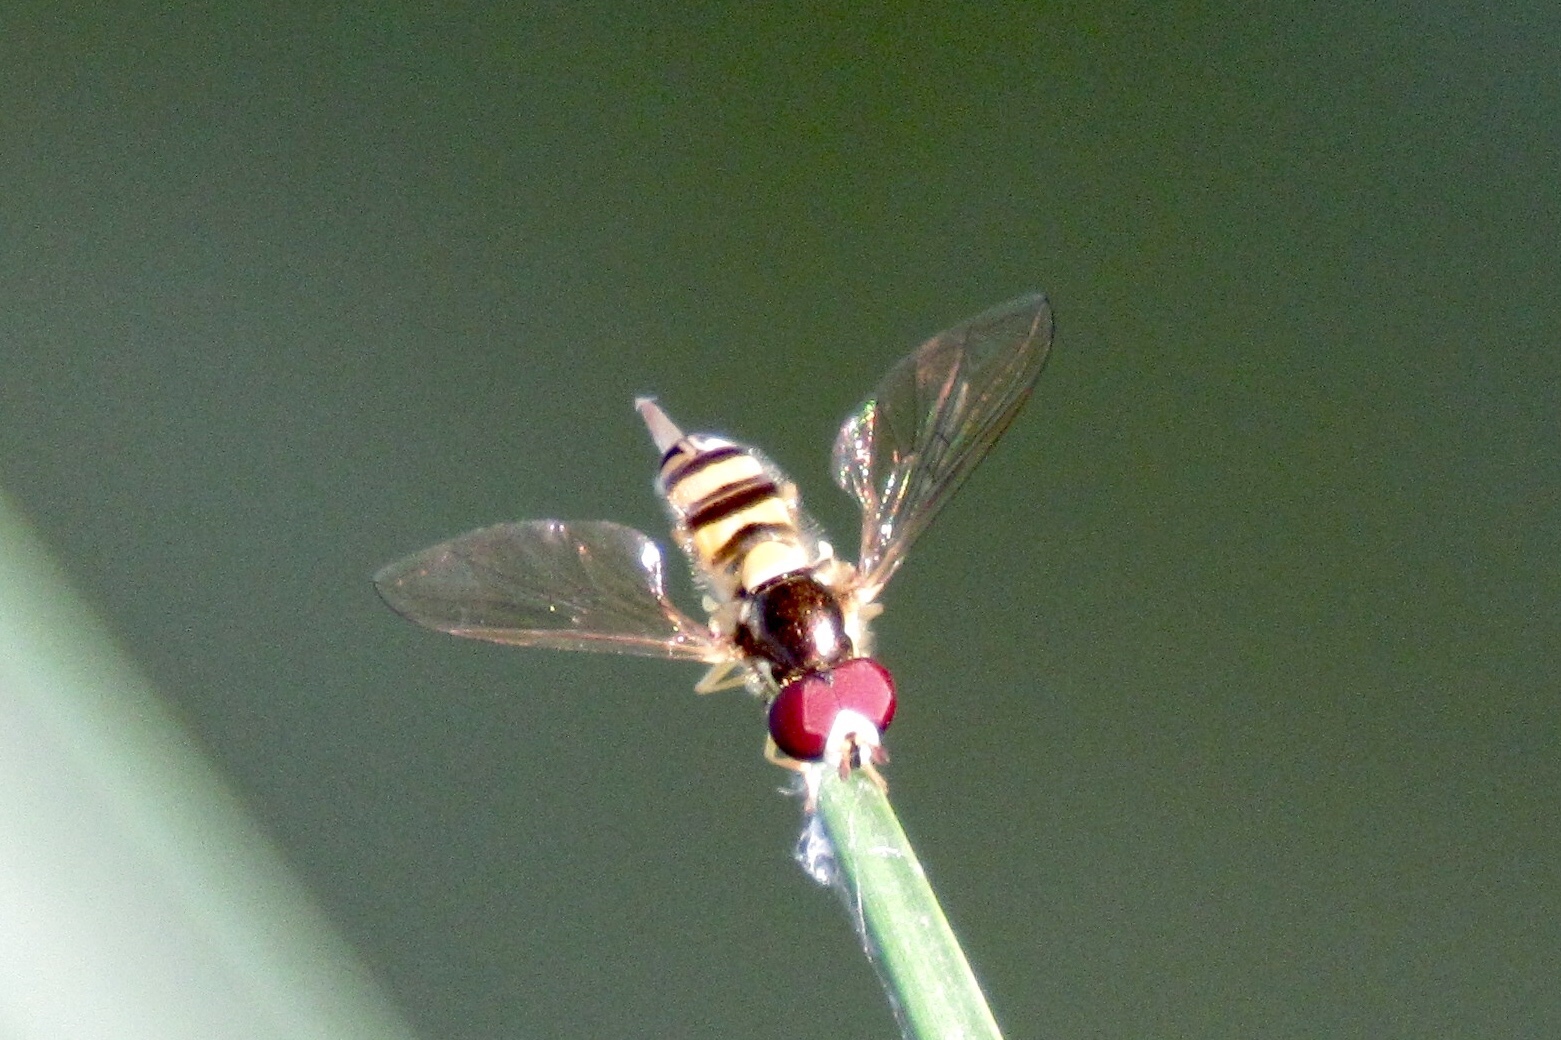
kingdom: Animalia
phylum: Arthropoda
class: Insecta
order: Diptera
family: Syrphidae
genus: Allograpta
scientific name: Allograpta exotica
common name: Syrphid fly
